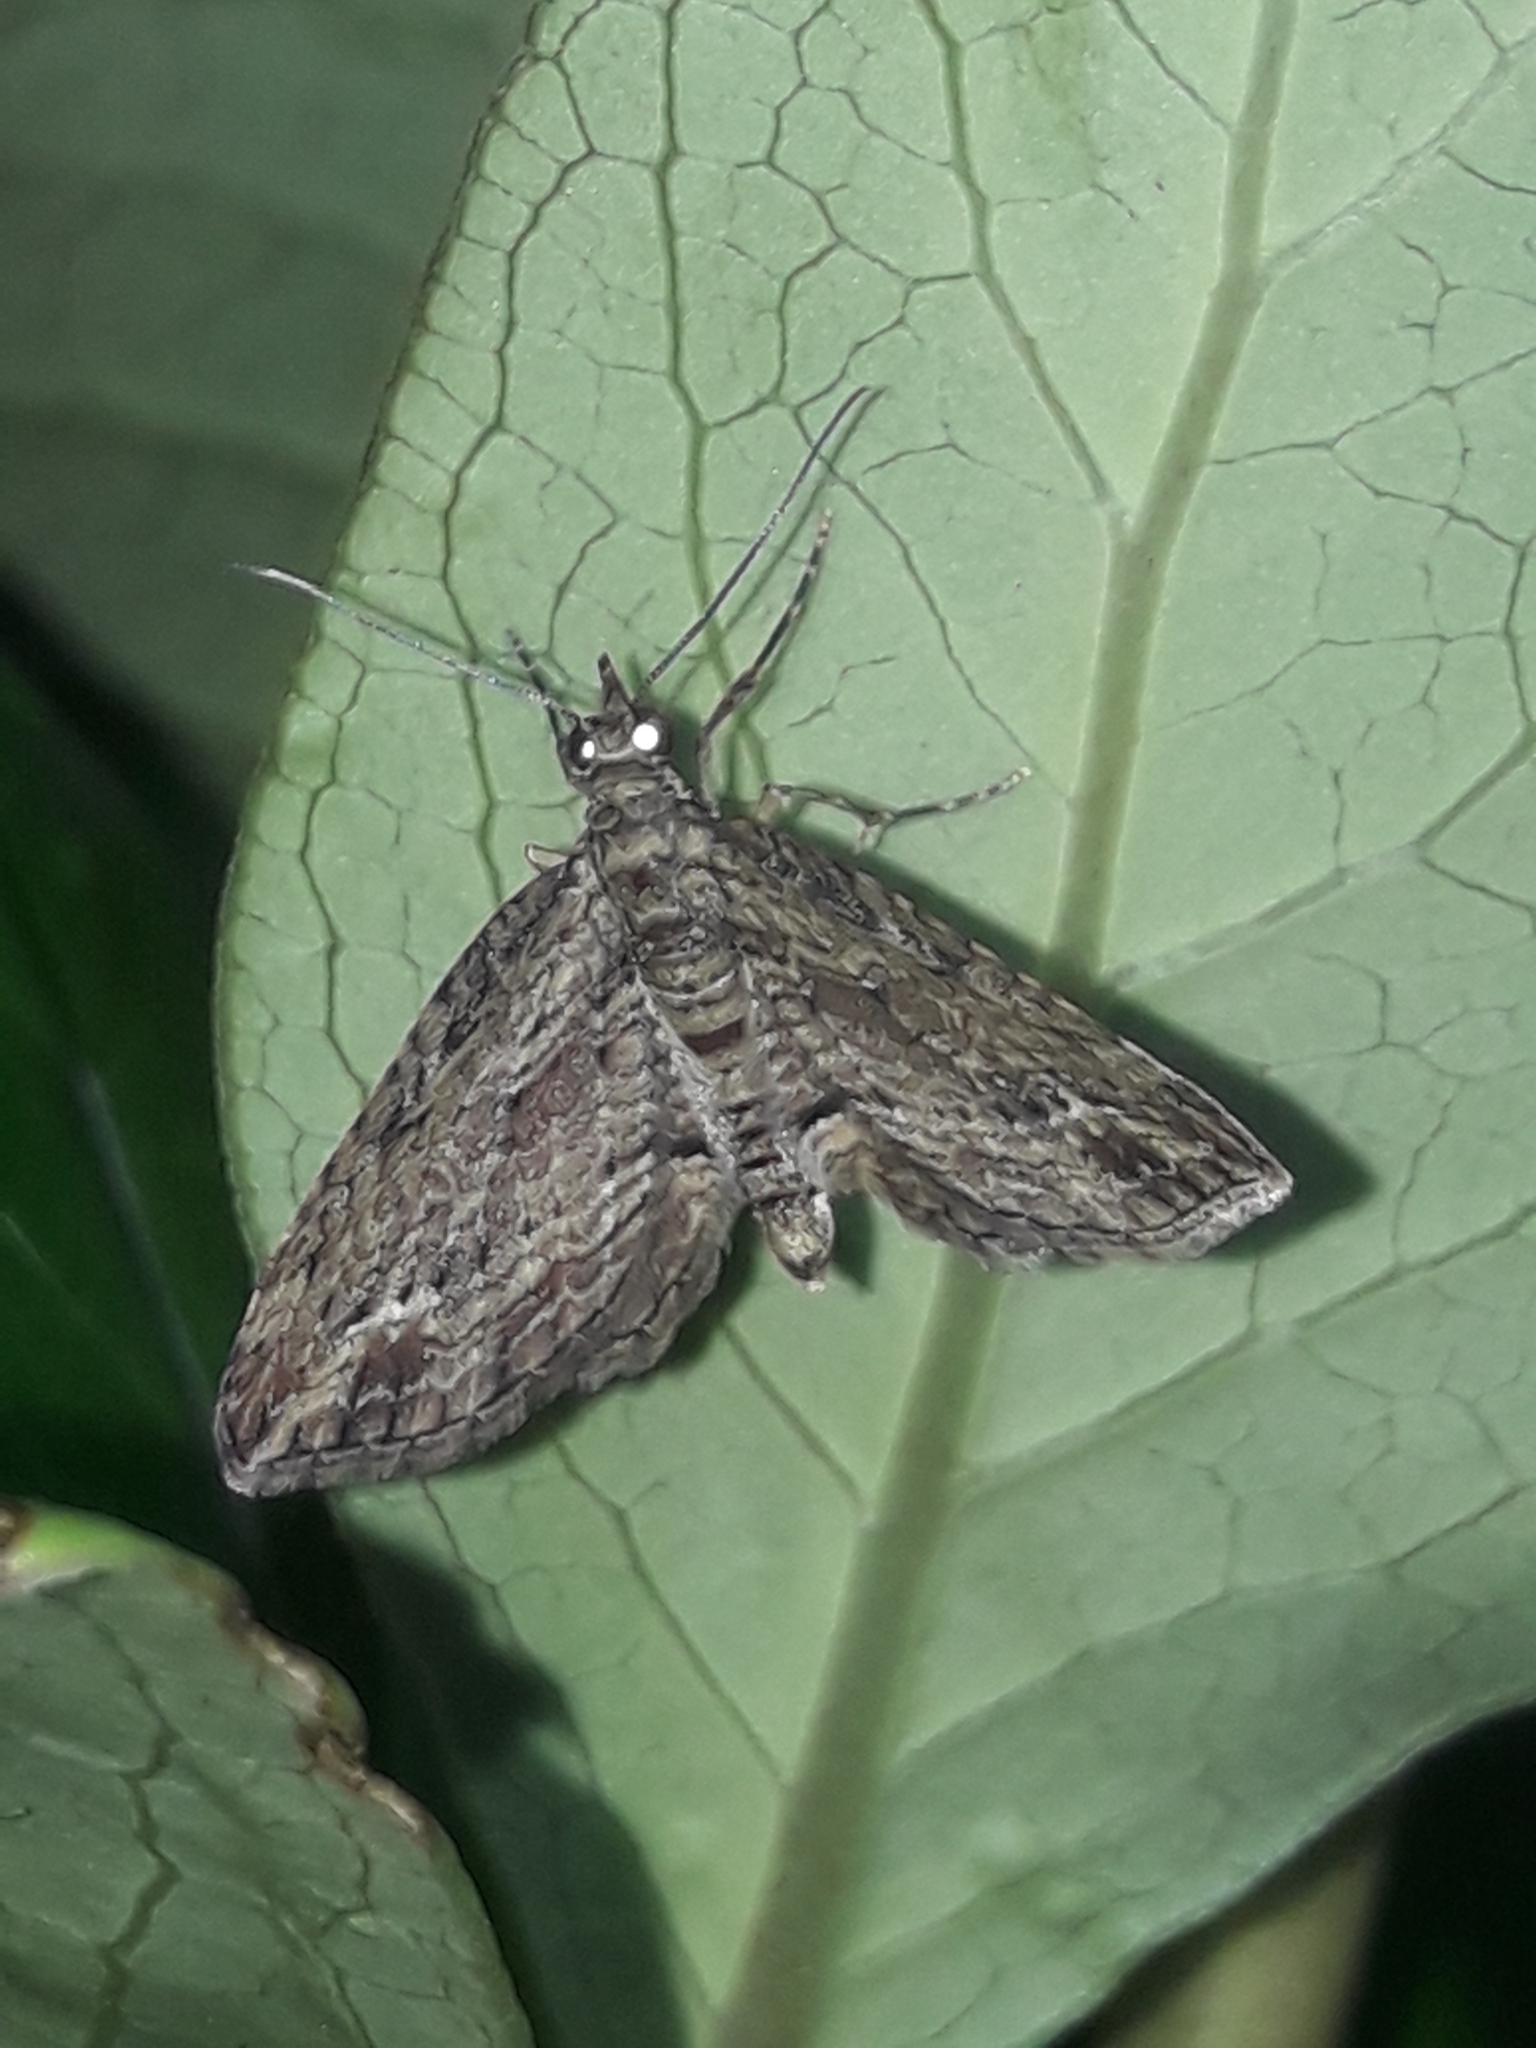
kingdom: Animalia
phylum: Arthropoda
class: Insecta
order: Lepidoptera
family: Geometridae
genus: Chloroclystis
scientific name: Chloroclystis filata
